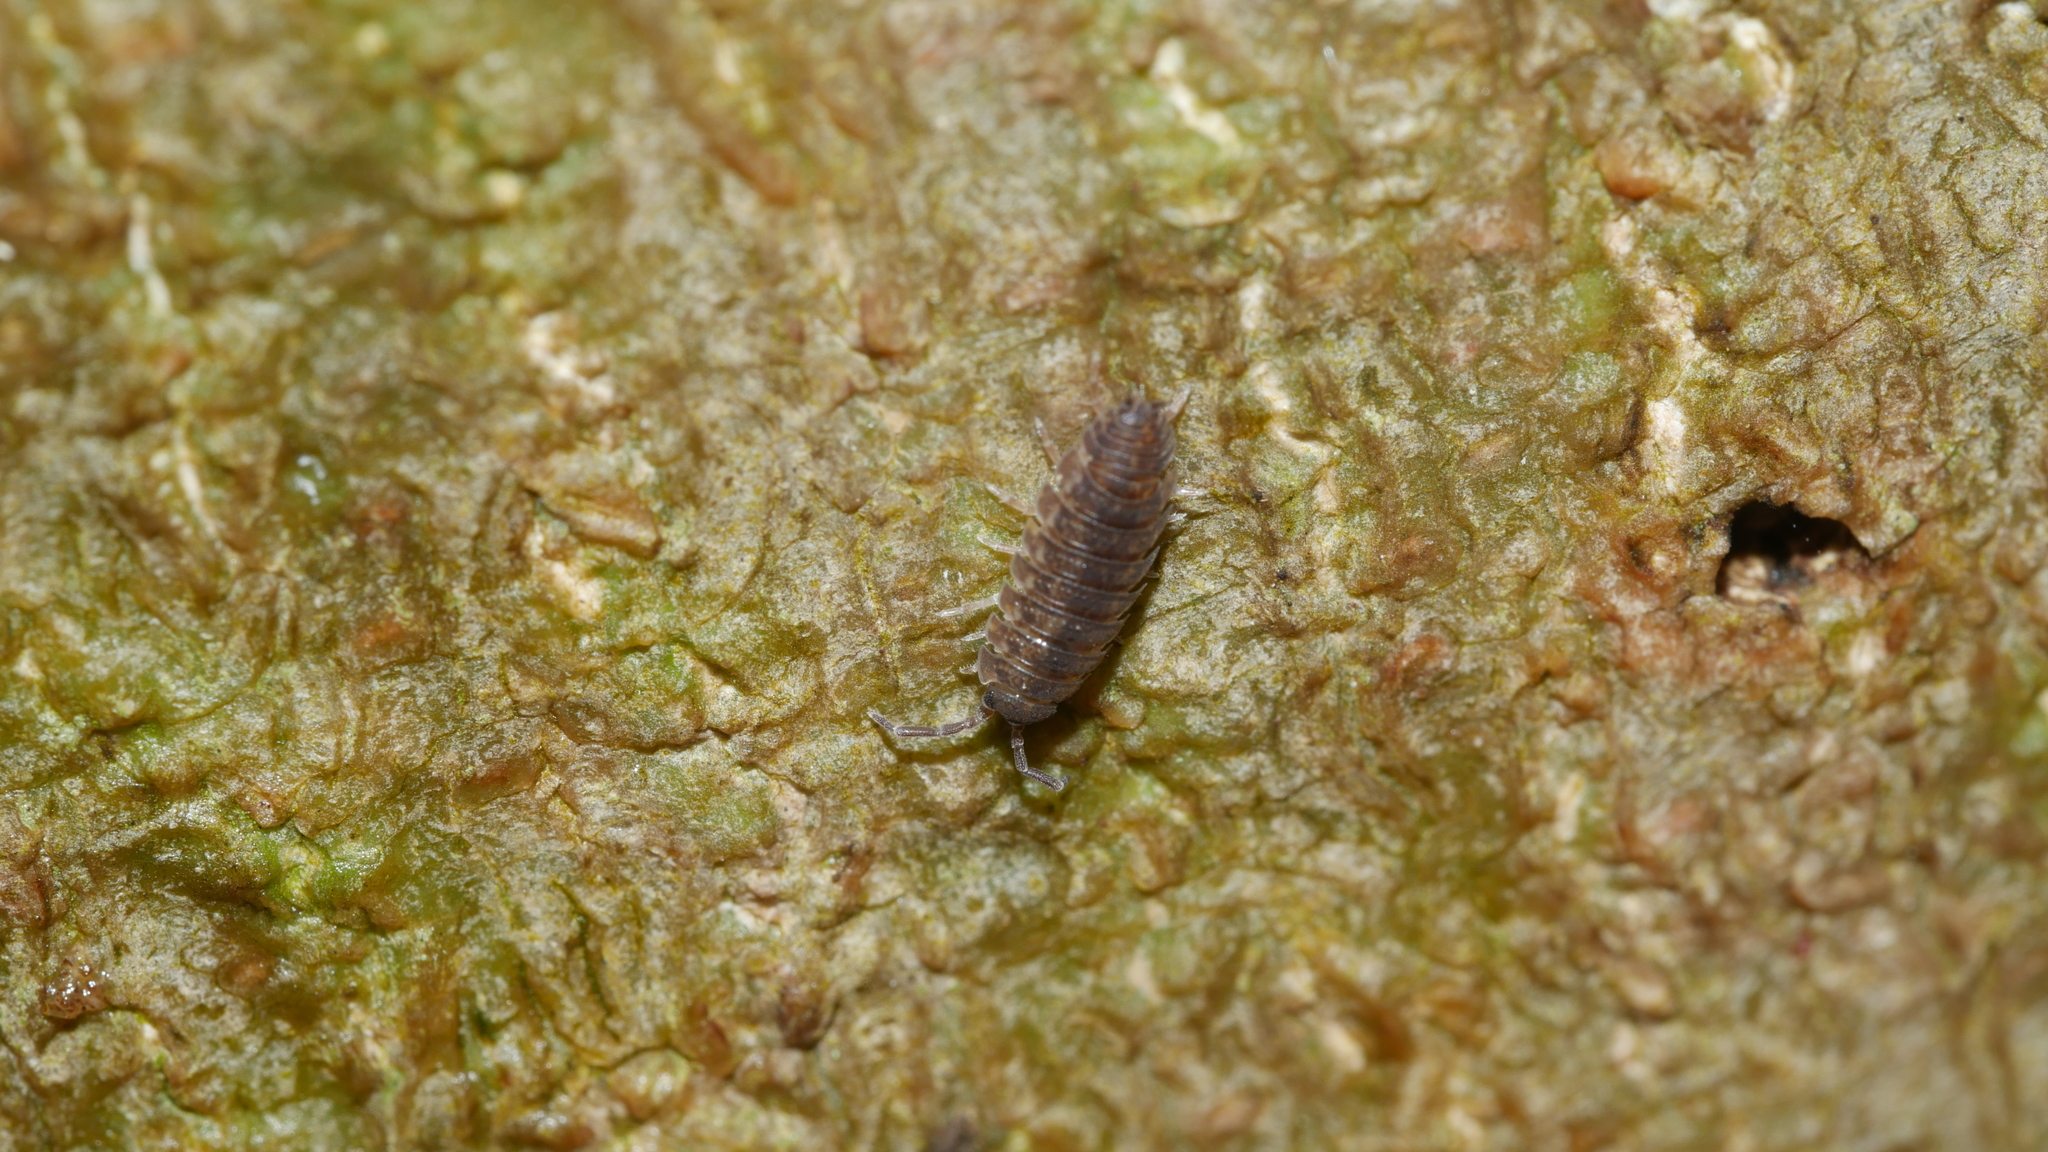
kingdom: Animalia
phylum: Arthropoda
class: Malacostraca
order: Isopoda
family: Porcellionidae
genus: Porcellio
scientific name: Porcellio scaber
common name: Common rough woodlouse
